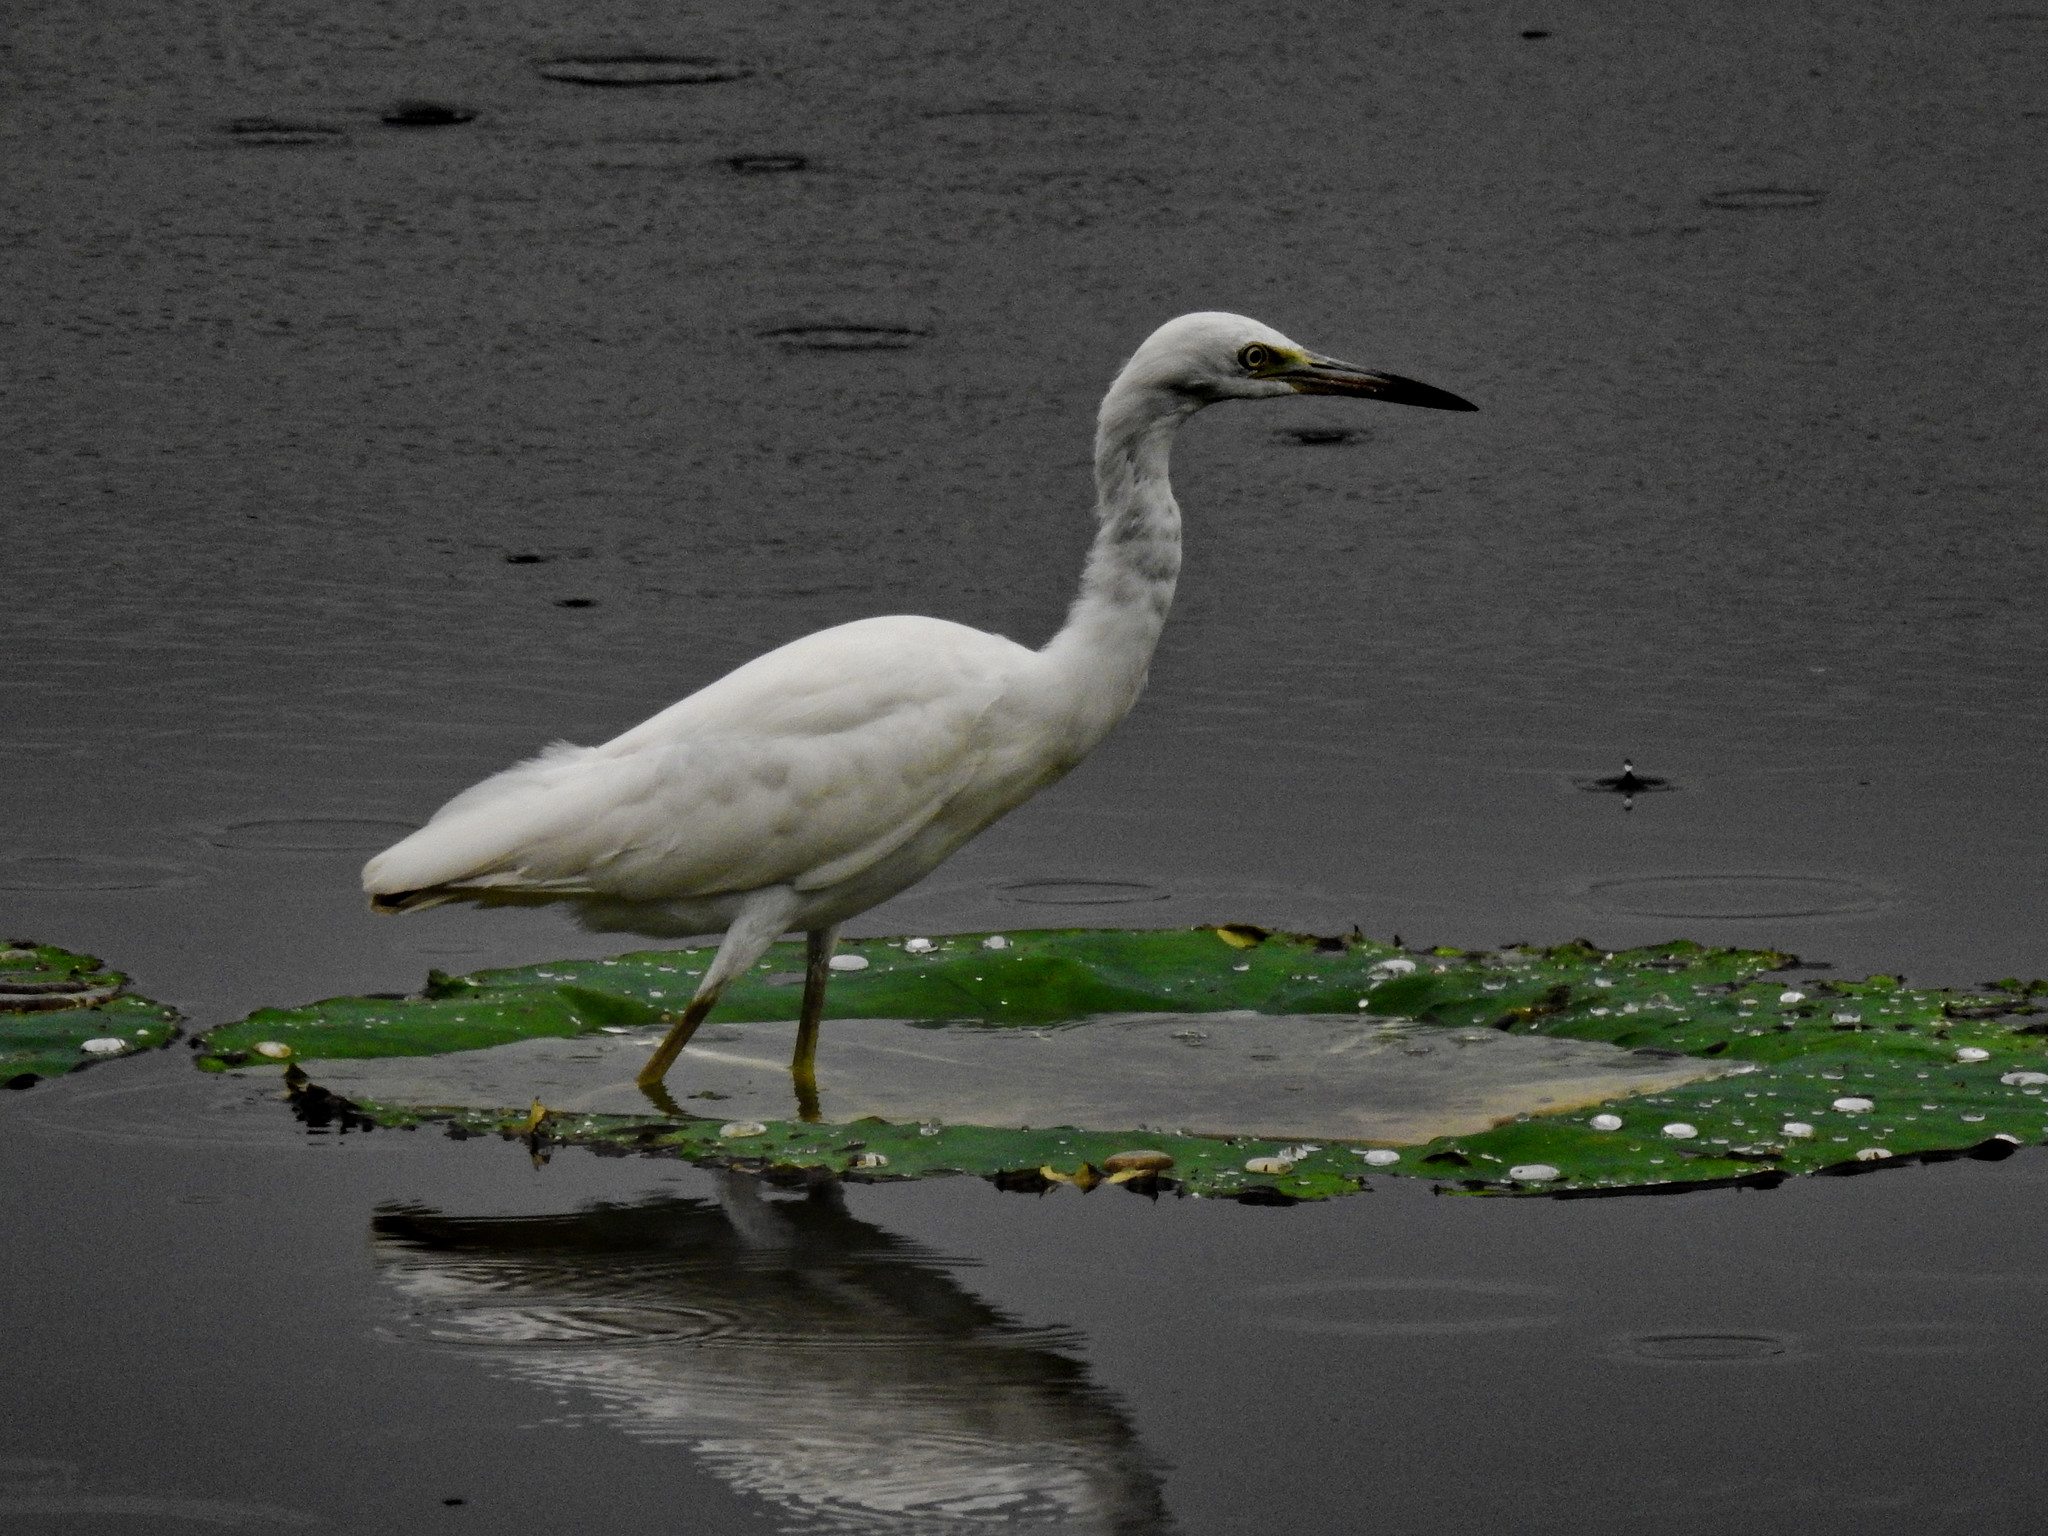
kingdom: Animalia
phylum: Chordata
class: Aves
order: Pelecaniformes
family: Ardeidae
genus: Egretta
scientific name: Egretta thula
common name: Snowy egret
